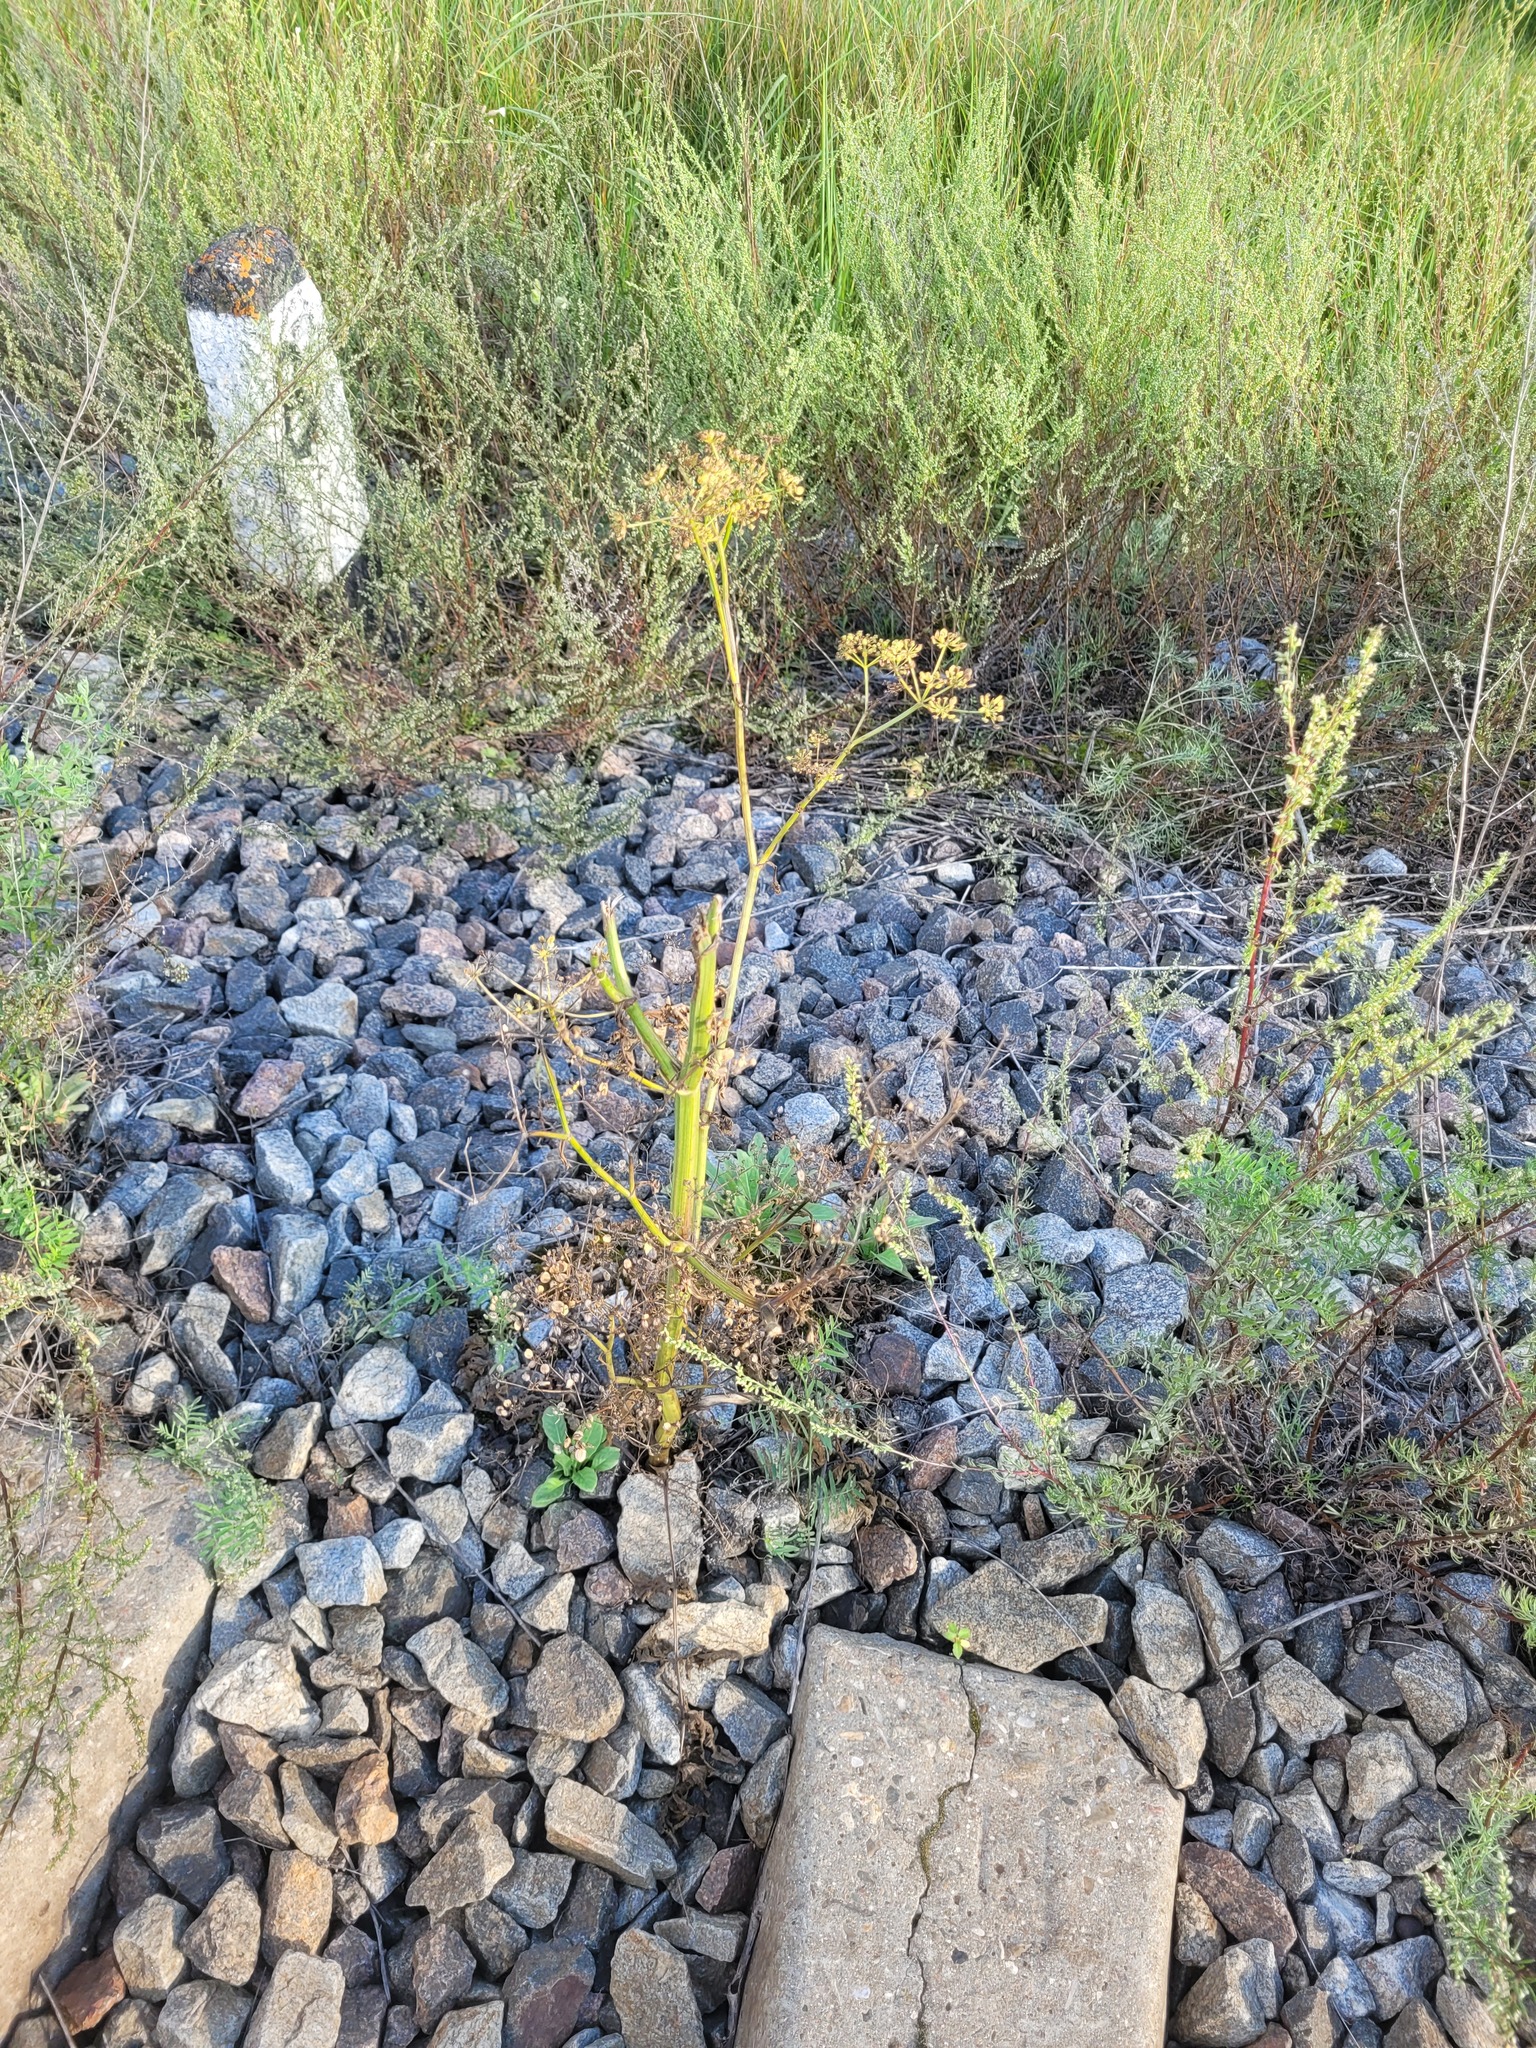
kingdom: Plantae
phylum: Tracheophyta
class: Magnoliopsida
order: Apiales
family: Apiaceae
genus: Pastinaca
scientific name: Pastinaca sativa
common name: Wild parsnip
